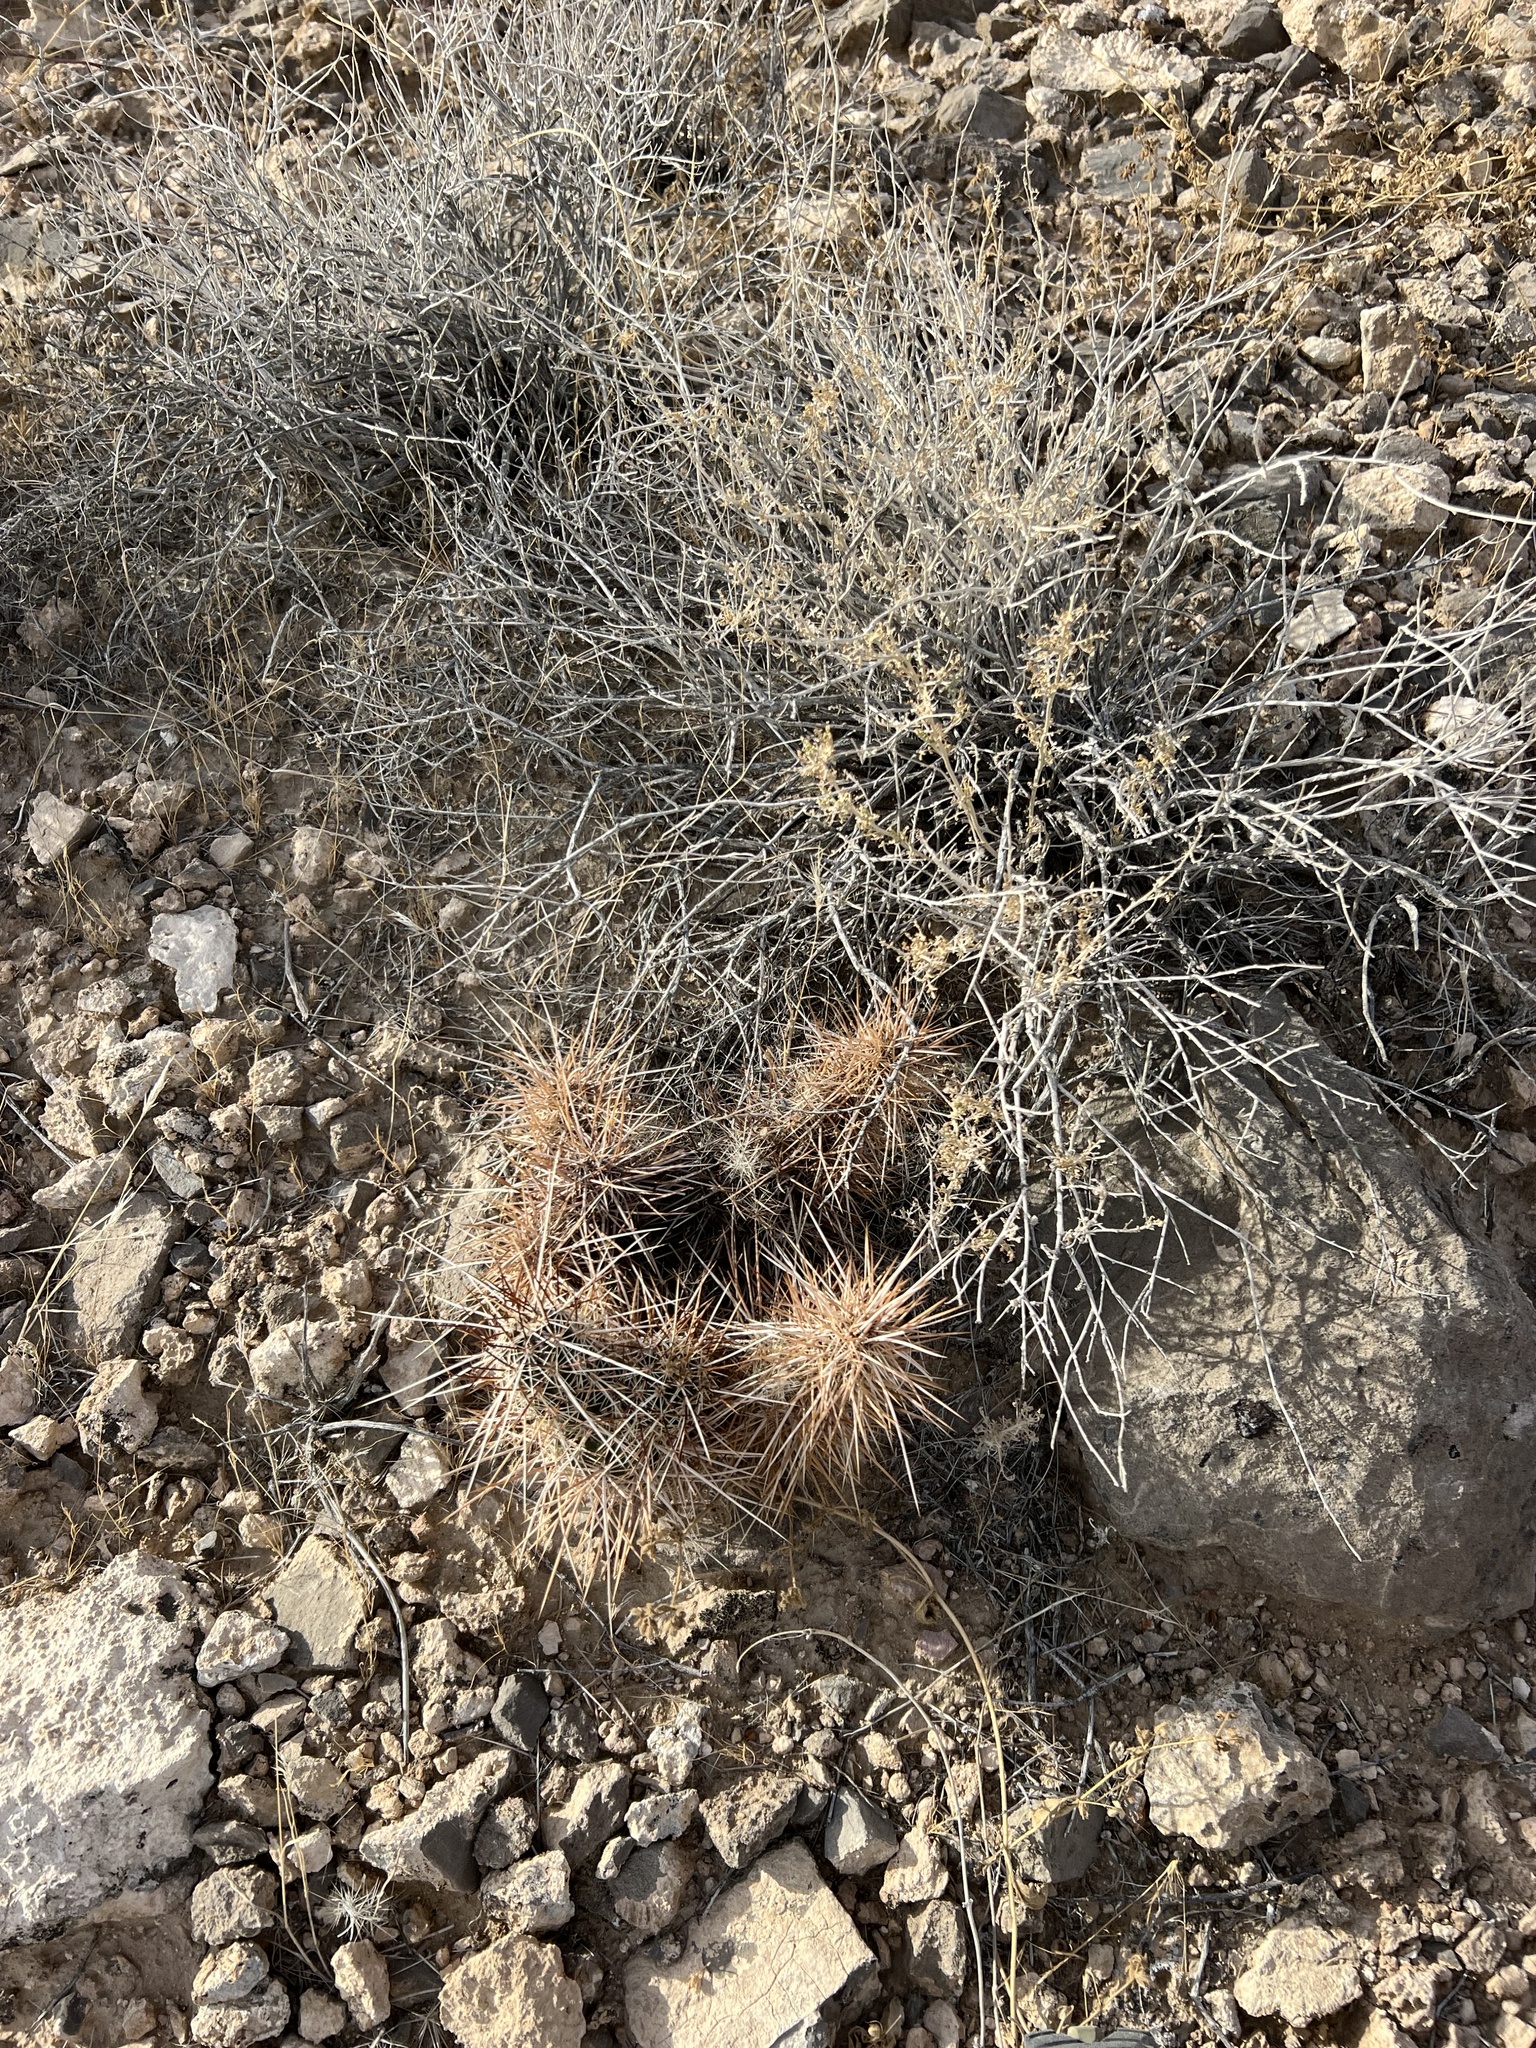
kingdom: Plantae
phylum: Tracheophyta
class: Magnoliopsida
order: Caryophyllales
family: Cactaceae
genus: Echinocereus
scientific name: Echinocereus engelmannii
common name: Engelmann's hedgehog cactus
